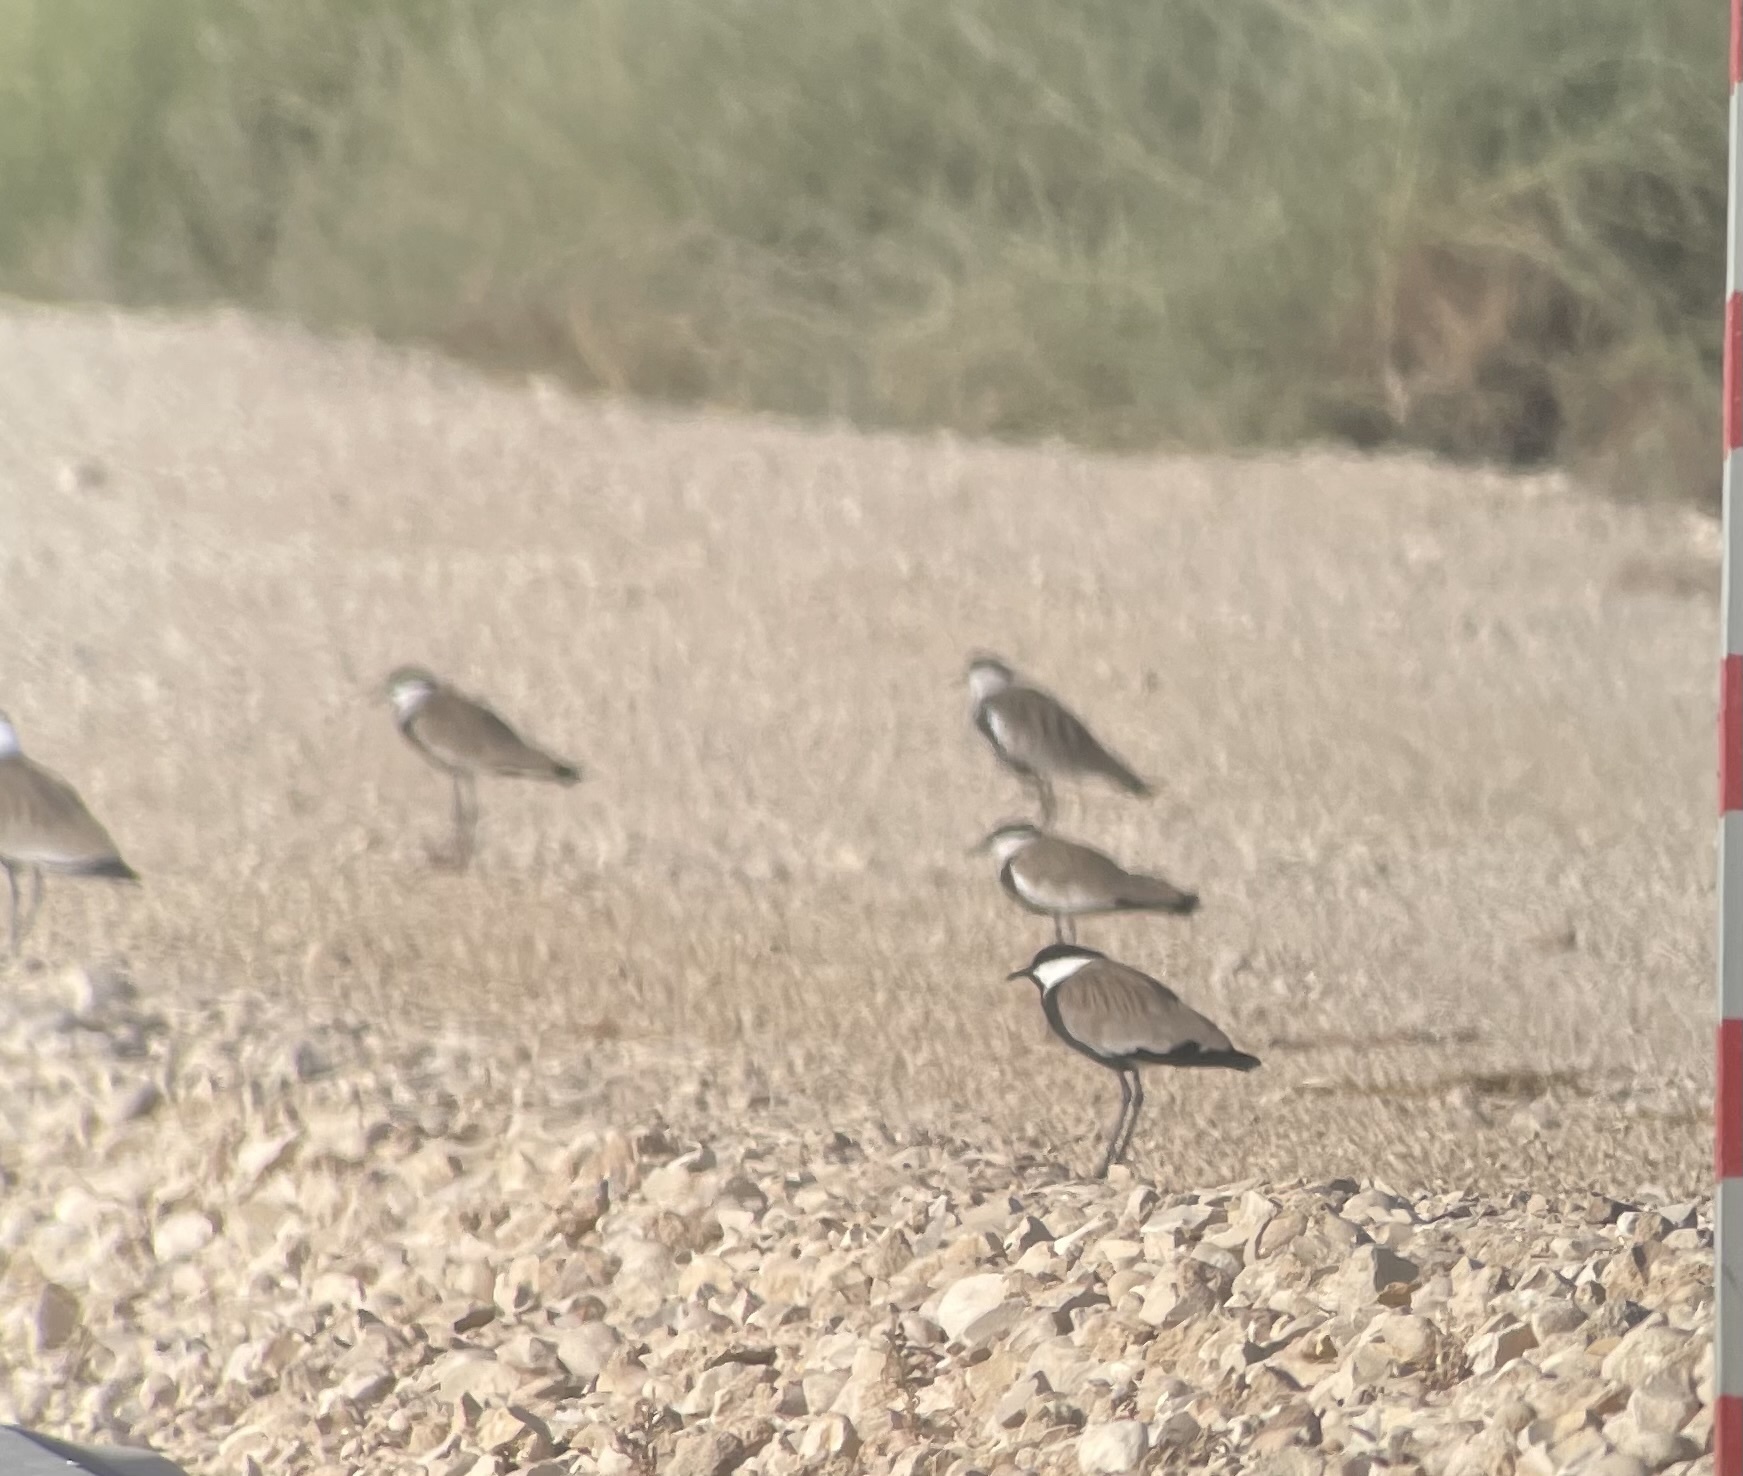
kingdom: Animalia
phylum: Chordata
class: Aves
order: Charadriiformes
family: Charadriidae
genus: Vanellus
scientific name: Vanellus spinosus
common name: Spur-winged lapwing
